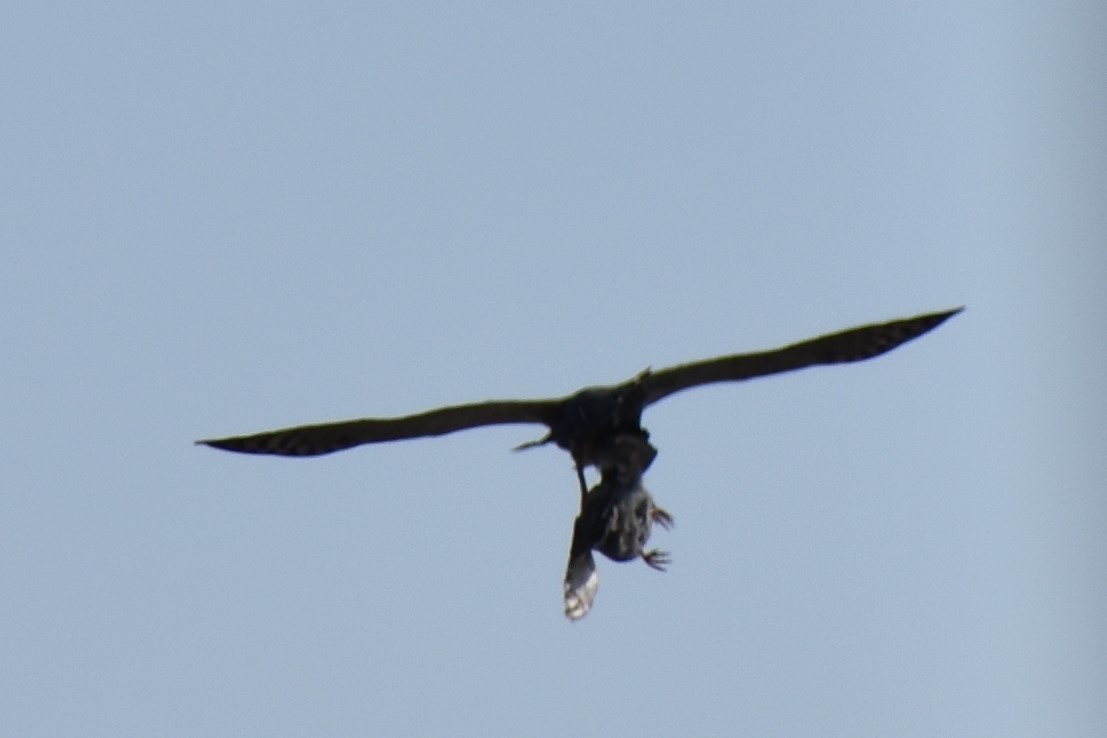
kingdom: Animalia
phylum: Chordata
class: Aves
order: Accipitriformes
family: Accipitridae
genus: Circus
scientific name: Circus ranivorus
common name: African marsh-harrier
